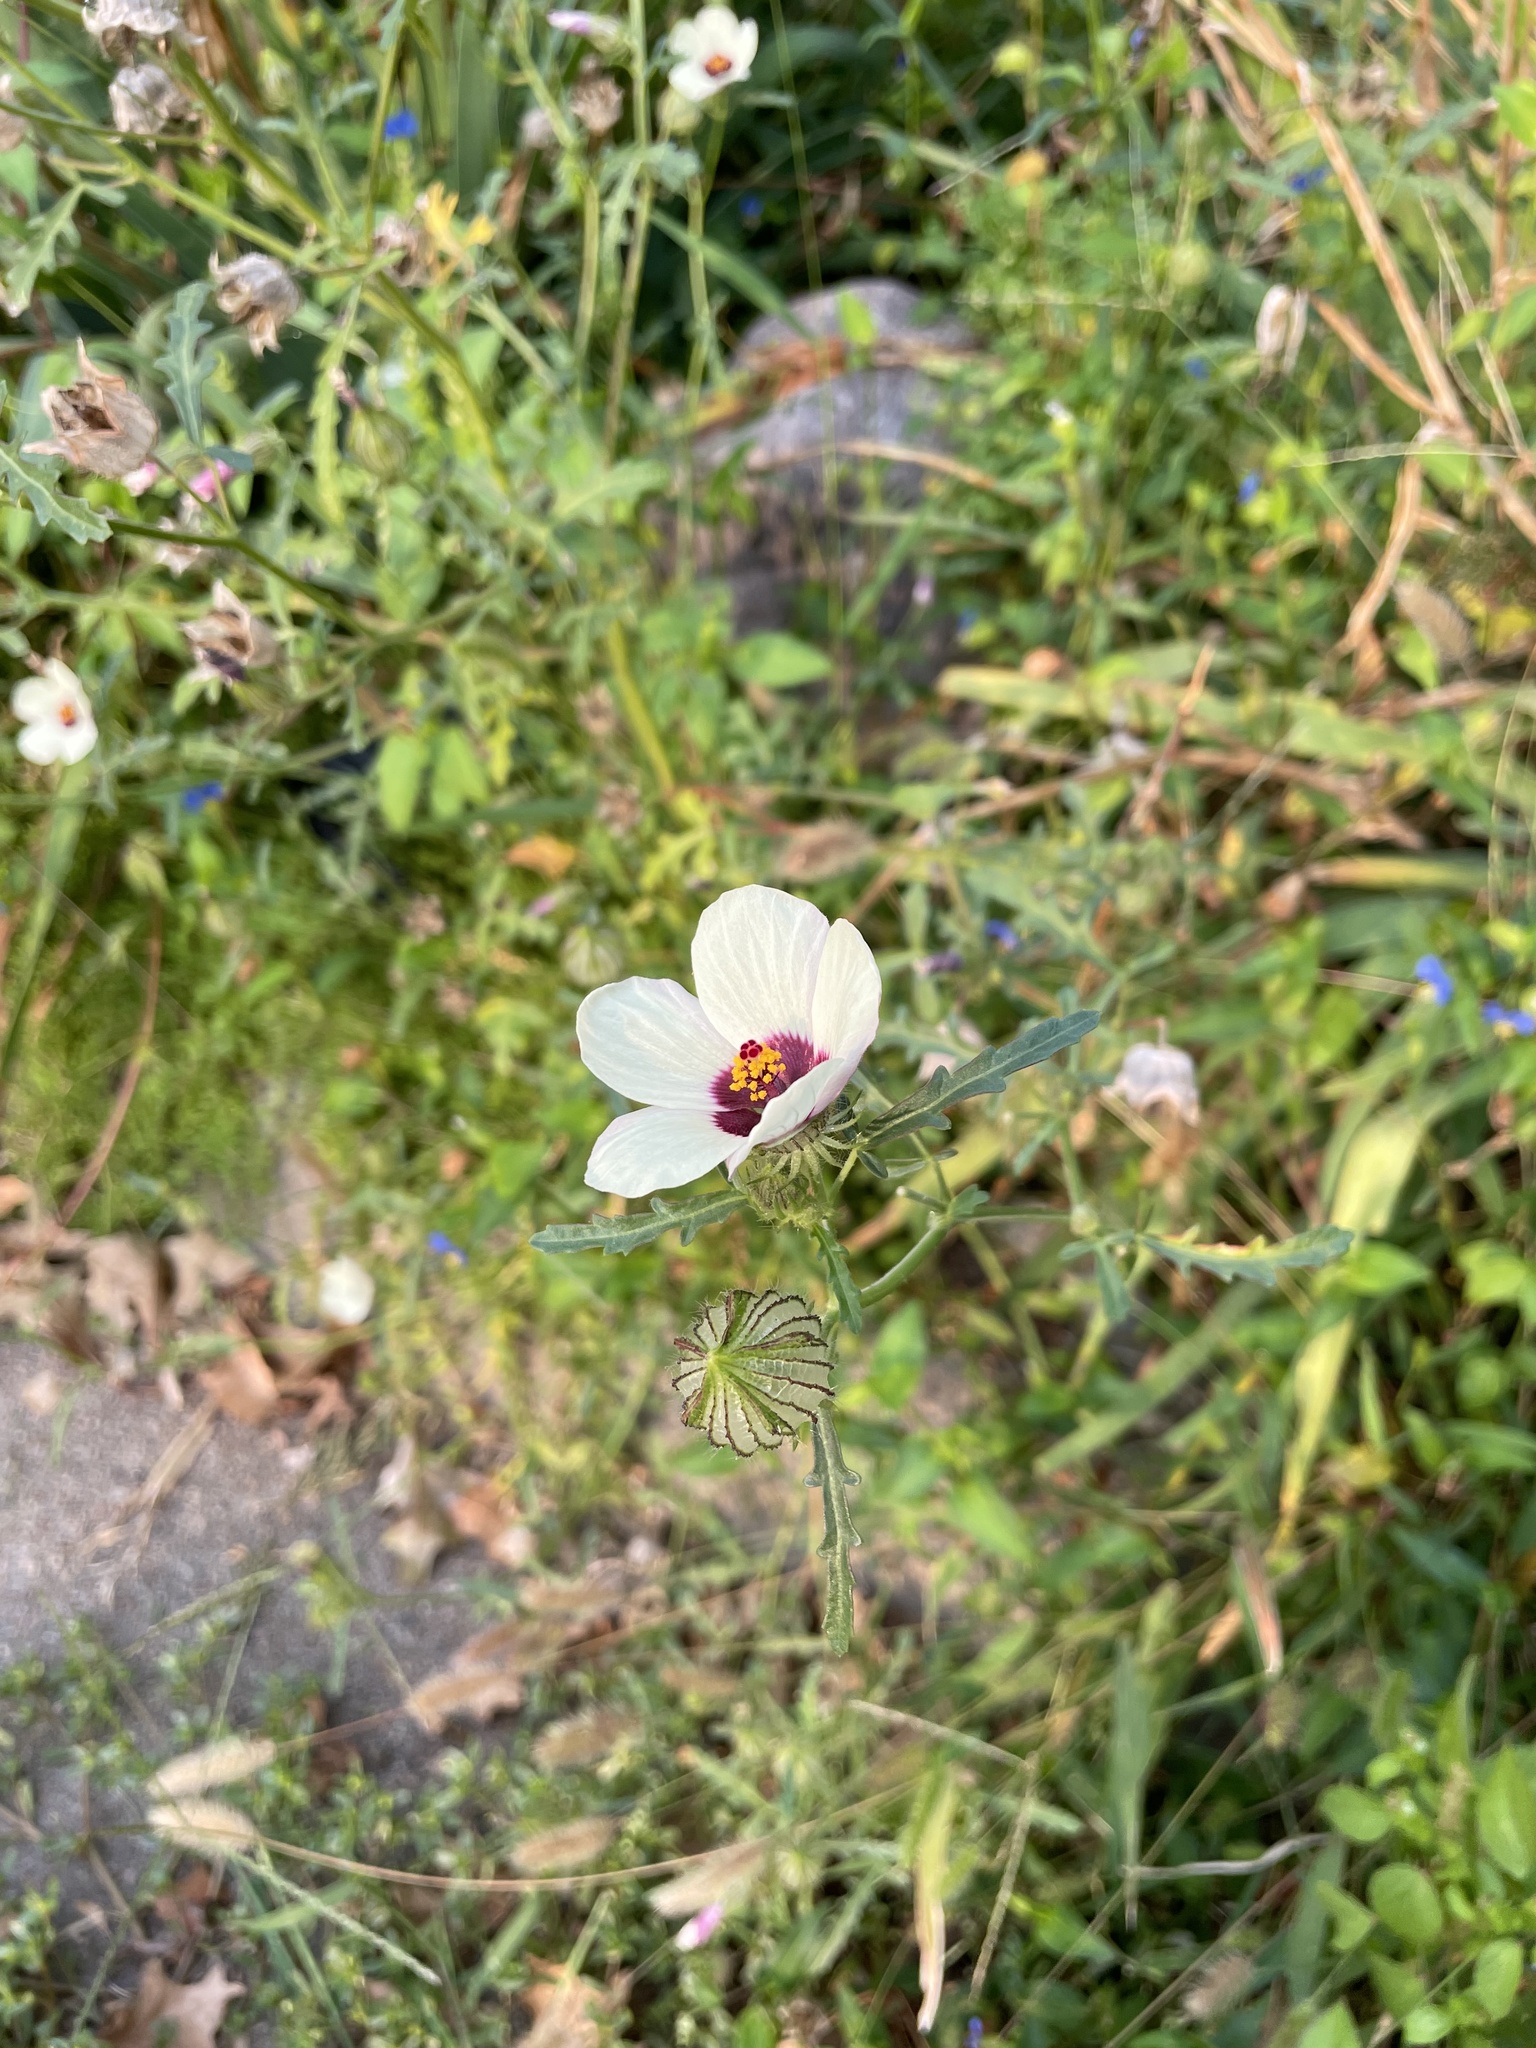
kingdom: Plantae
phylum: Tracheophyta
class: Magnoliopsida
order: Malvales
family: Malvaceae
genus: Hibiscus
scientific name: Hibiscus trionum
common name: Bladder ketmia
